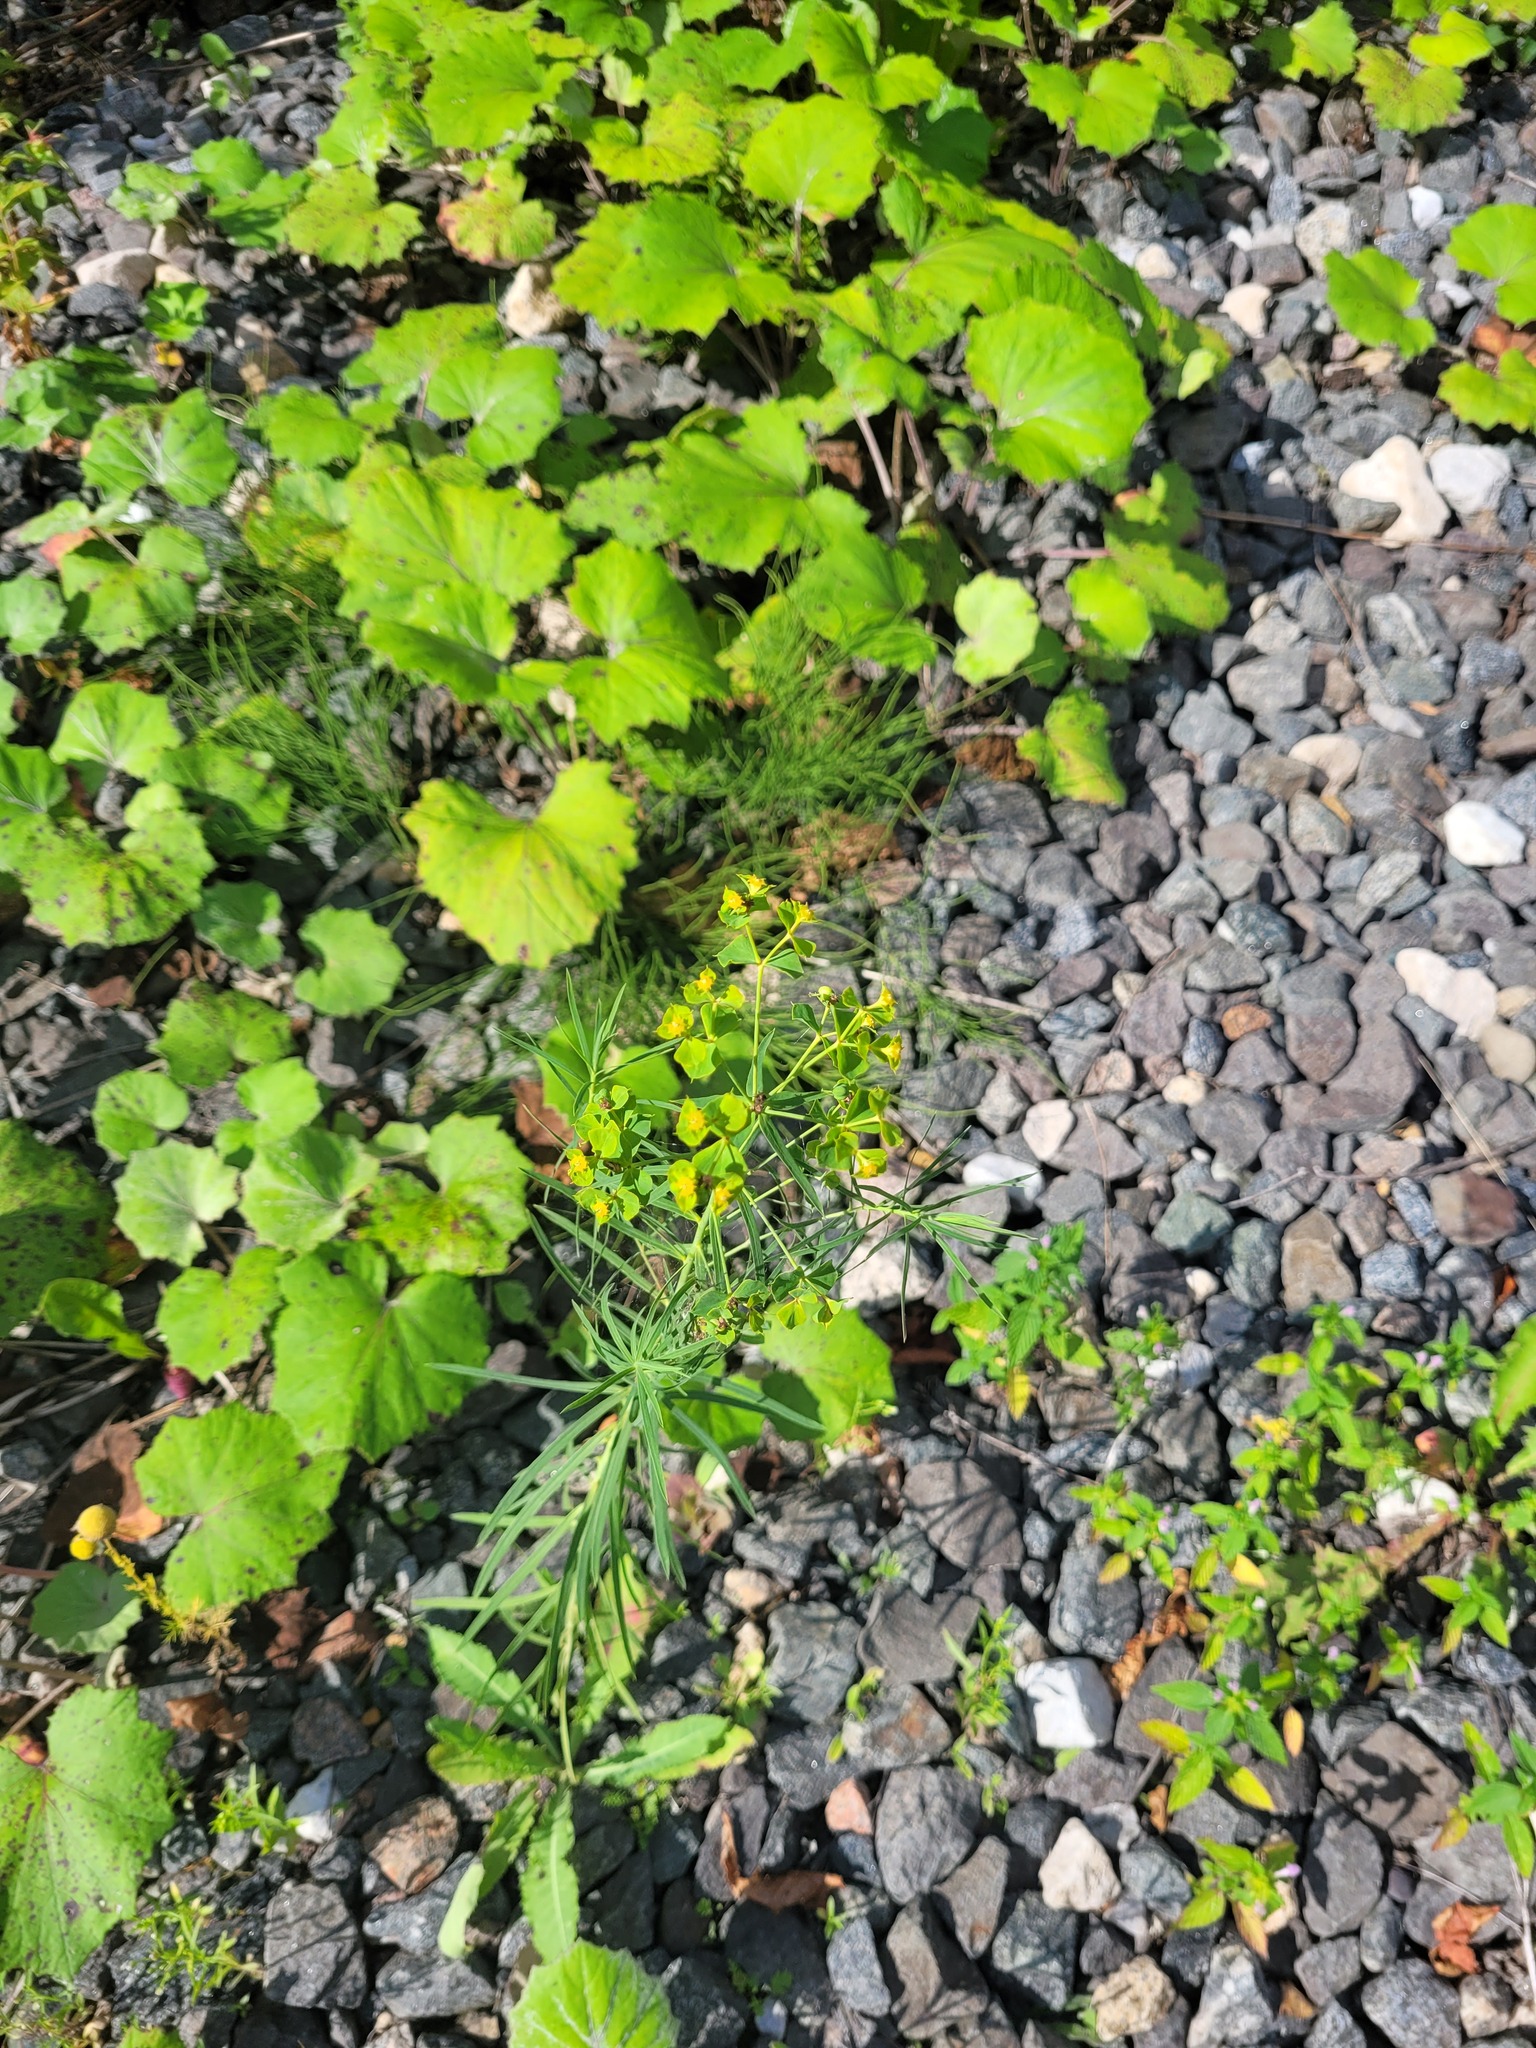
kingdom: Plantae
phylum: Tracheophyta
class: Magnoliopsida
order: Malpighiales
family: Euphorbiaceae
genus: Euphorbia
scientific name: Euphorbia virgata
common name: Leafy spurge
